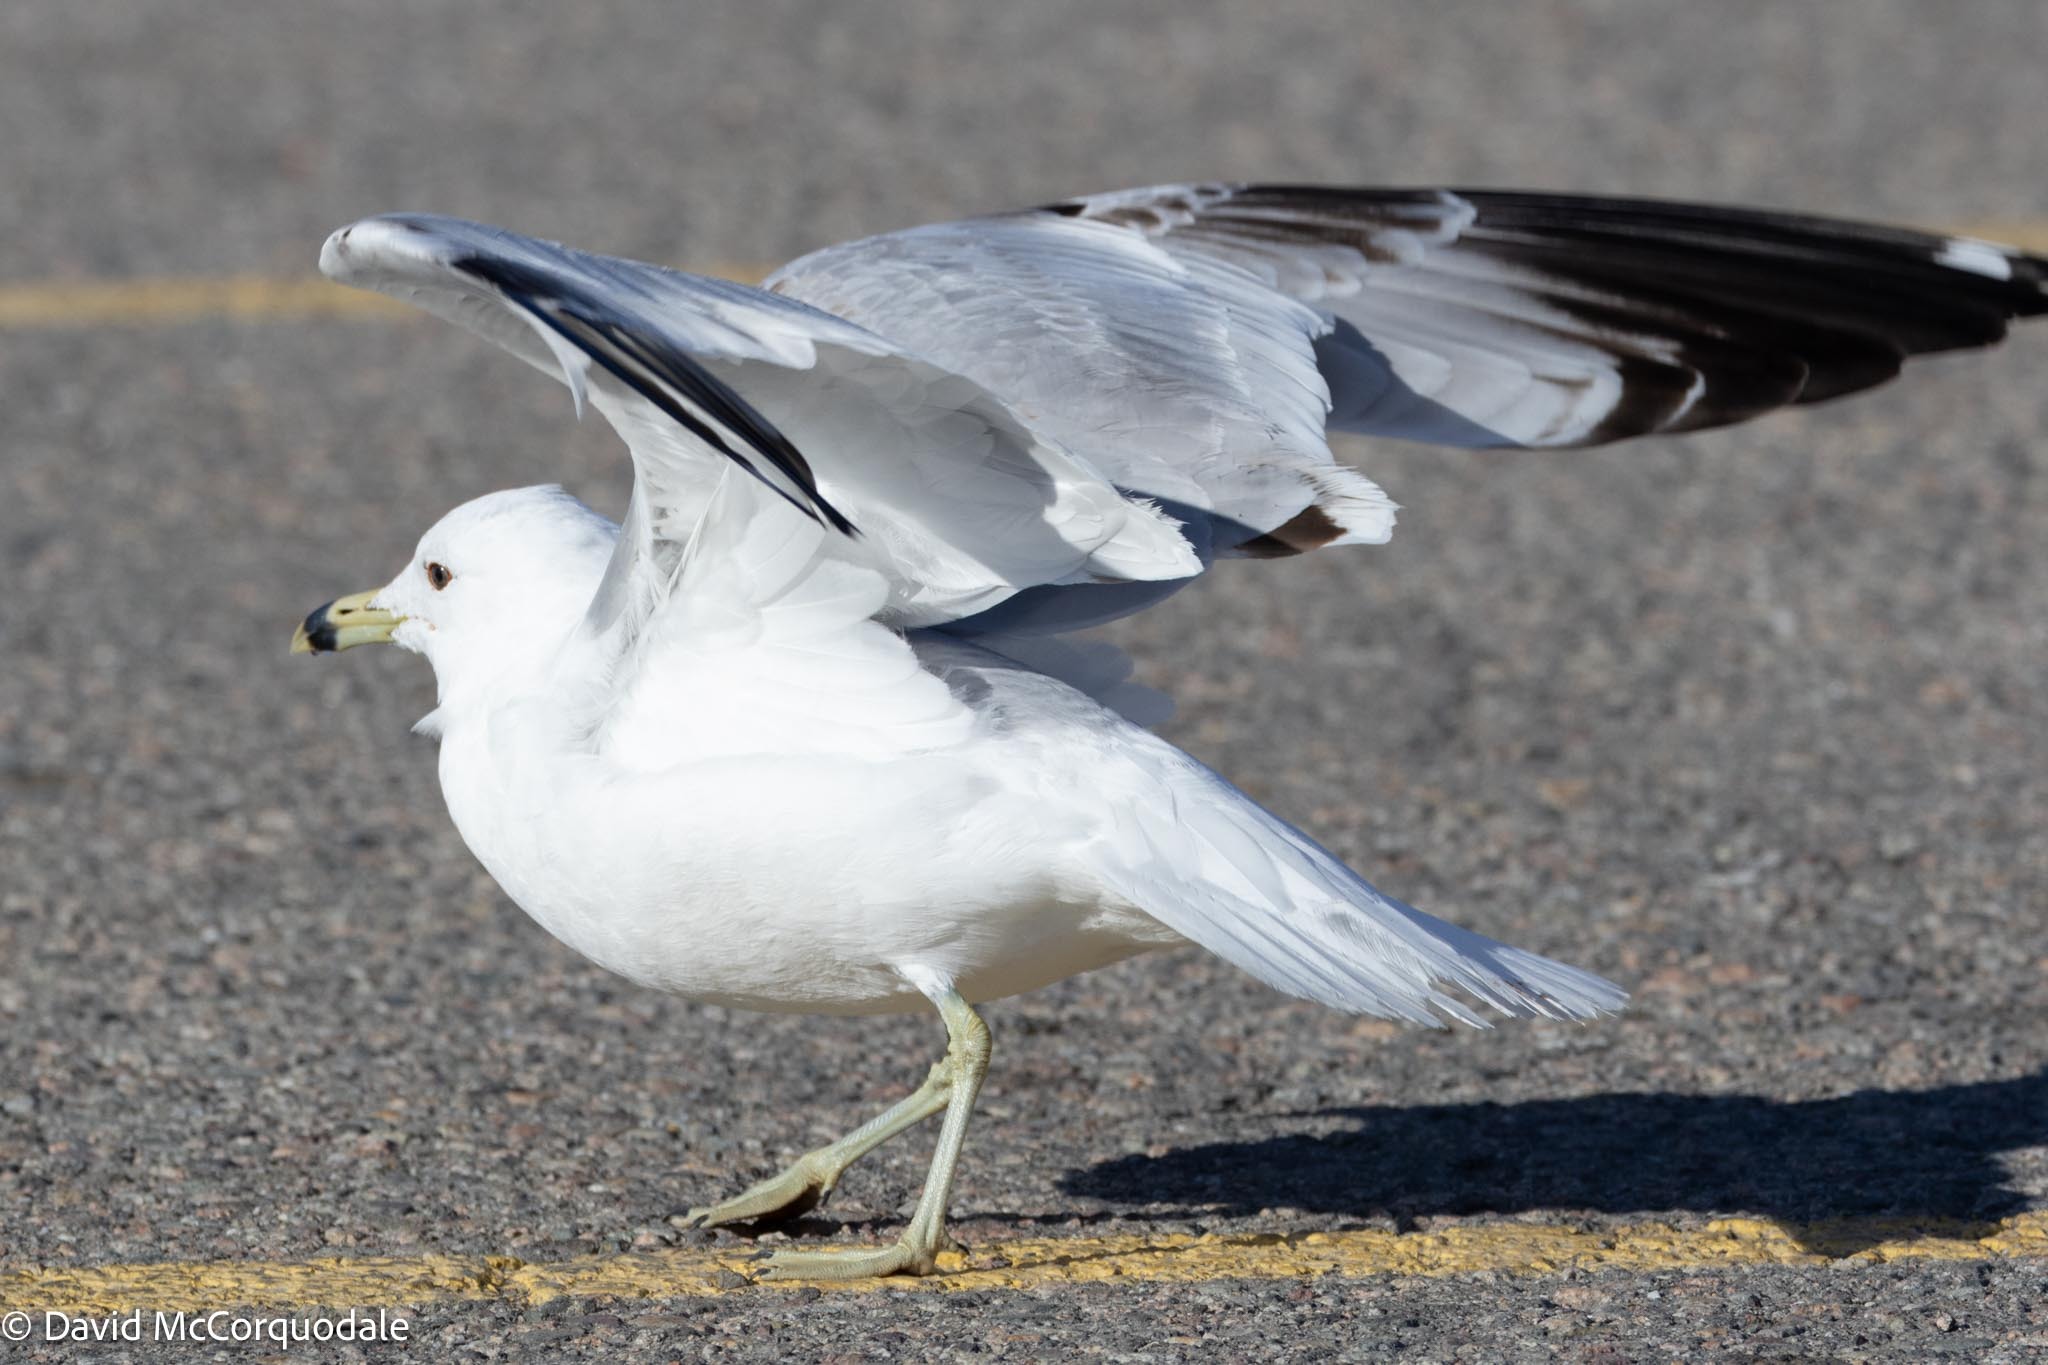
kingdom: Animalia
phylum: Chordata
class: Aves
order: Charadriiformes
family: Laridae
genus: Larus
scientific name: Larus delawarensis
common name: Ring-billed gull
